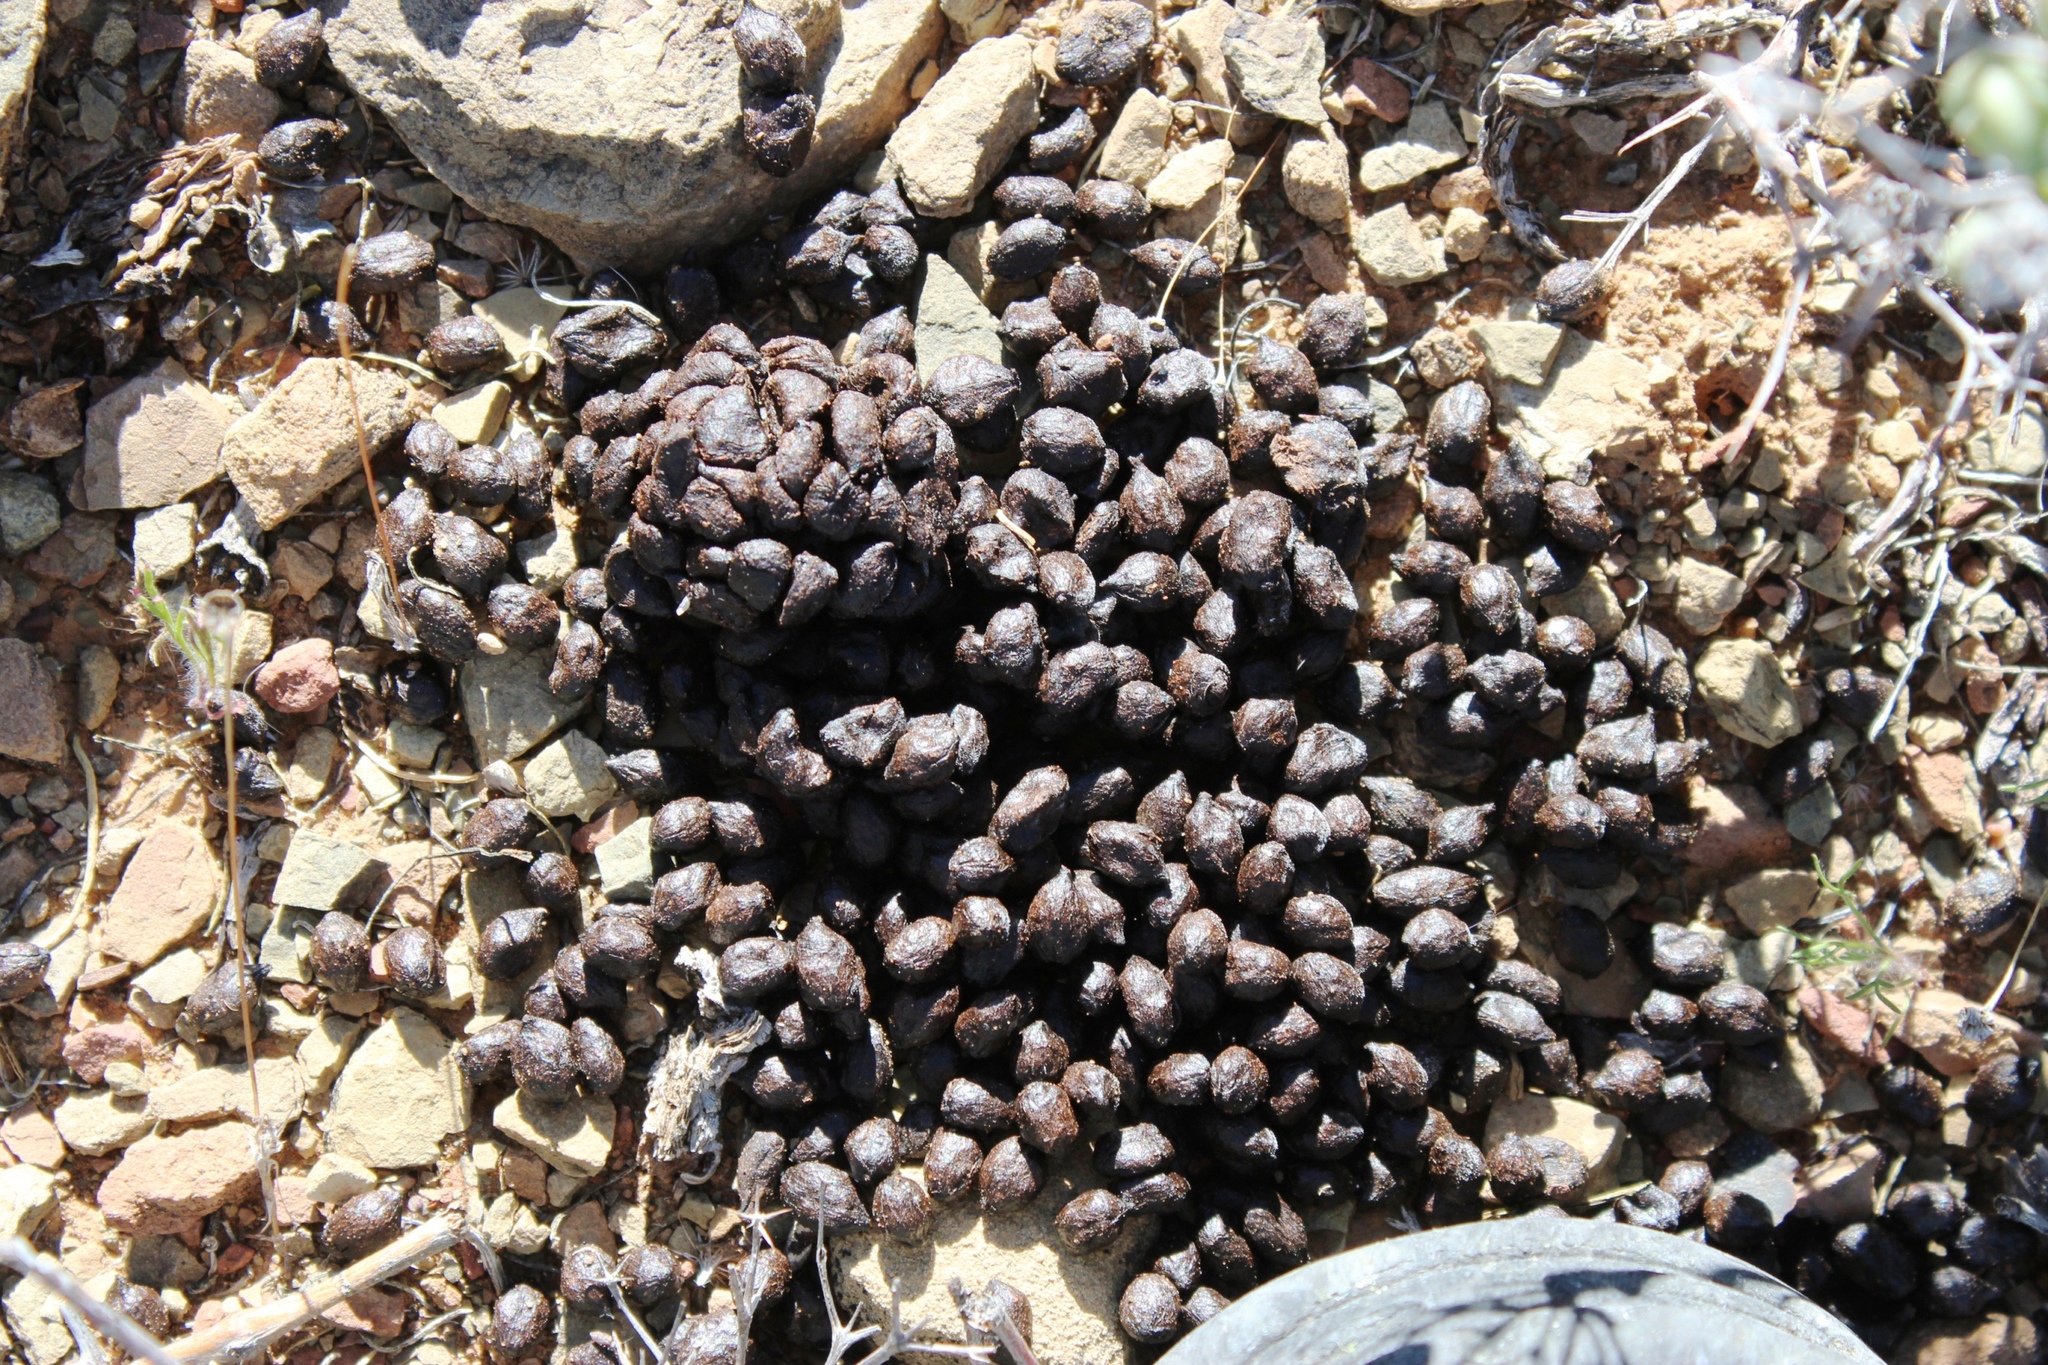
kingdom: Animalia
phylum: Chordata
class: Mammalia
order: Artiodactyla
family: Bovidae
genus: Sylvicapra
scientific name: Sylvicapra grimmia
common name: Bush duiker
